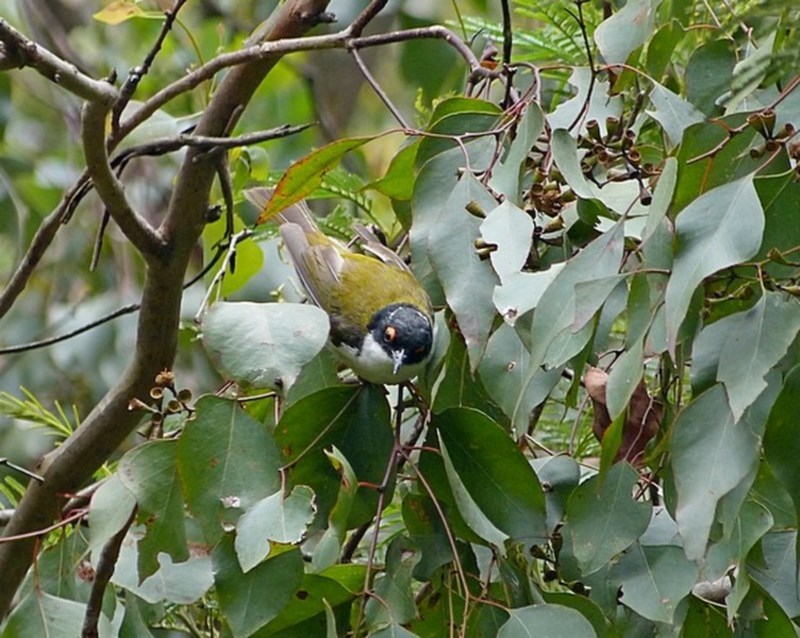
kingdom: Animalia
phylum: Chordata
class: Aves
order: Passeriformes
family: Meliphagidae
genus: Melithreptus
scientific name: Melithreptus lunatus
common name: White-naped honeyeater
